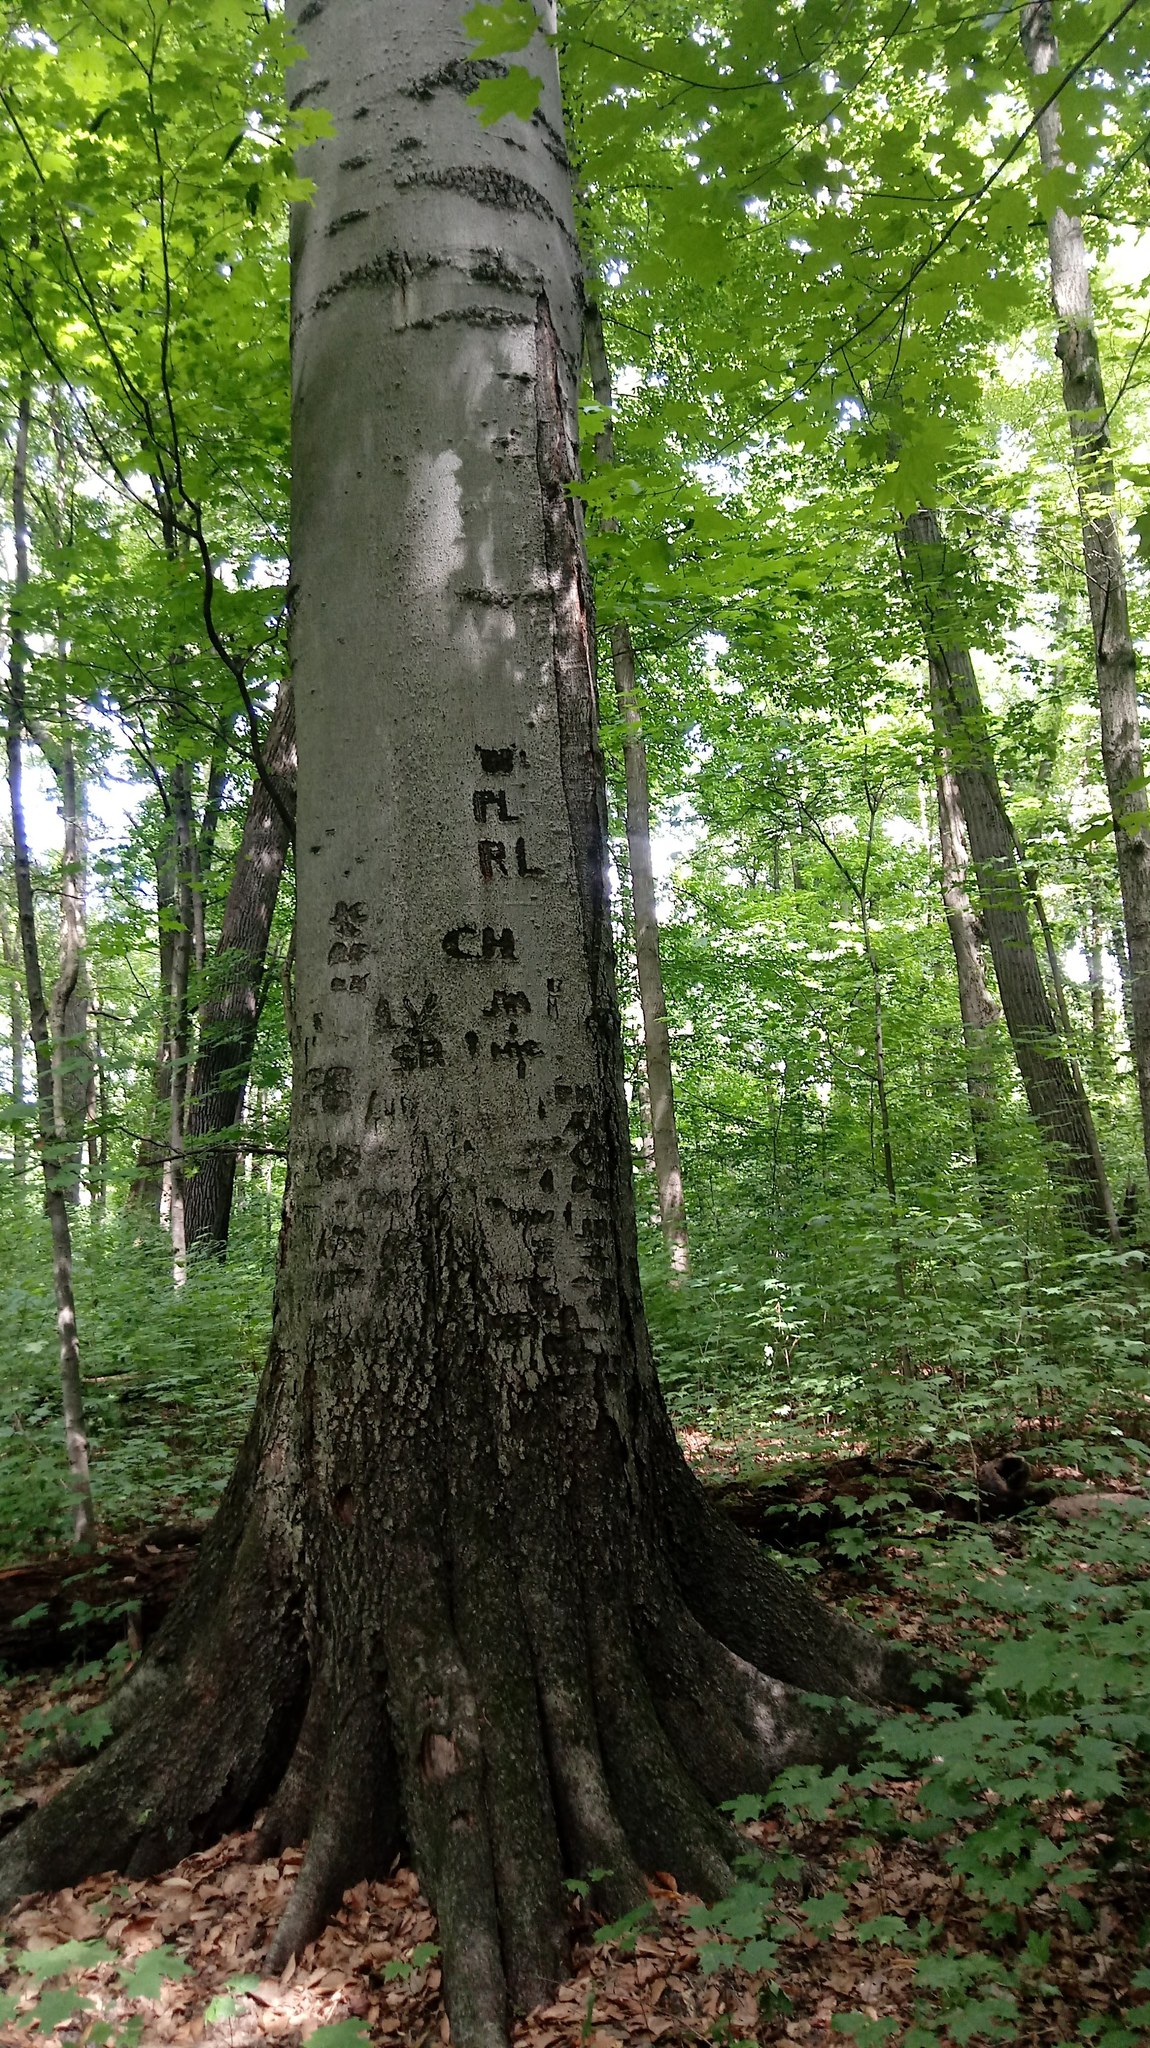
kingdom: Plantae
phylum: Tracheophyta
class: Magnoliopsida
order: Fagales
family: Fagaceae
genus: Fagus
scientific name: Fagus grandifolia
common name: American beech
